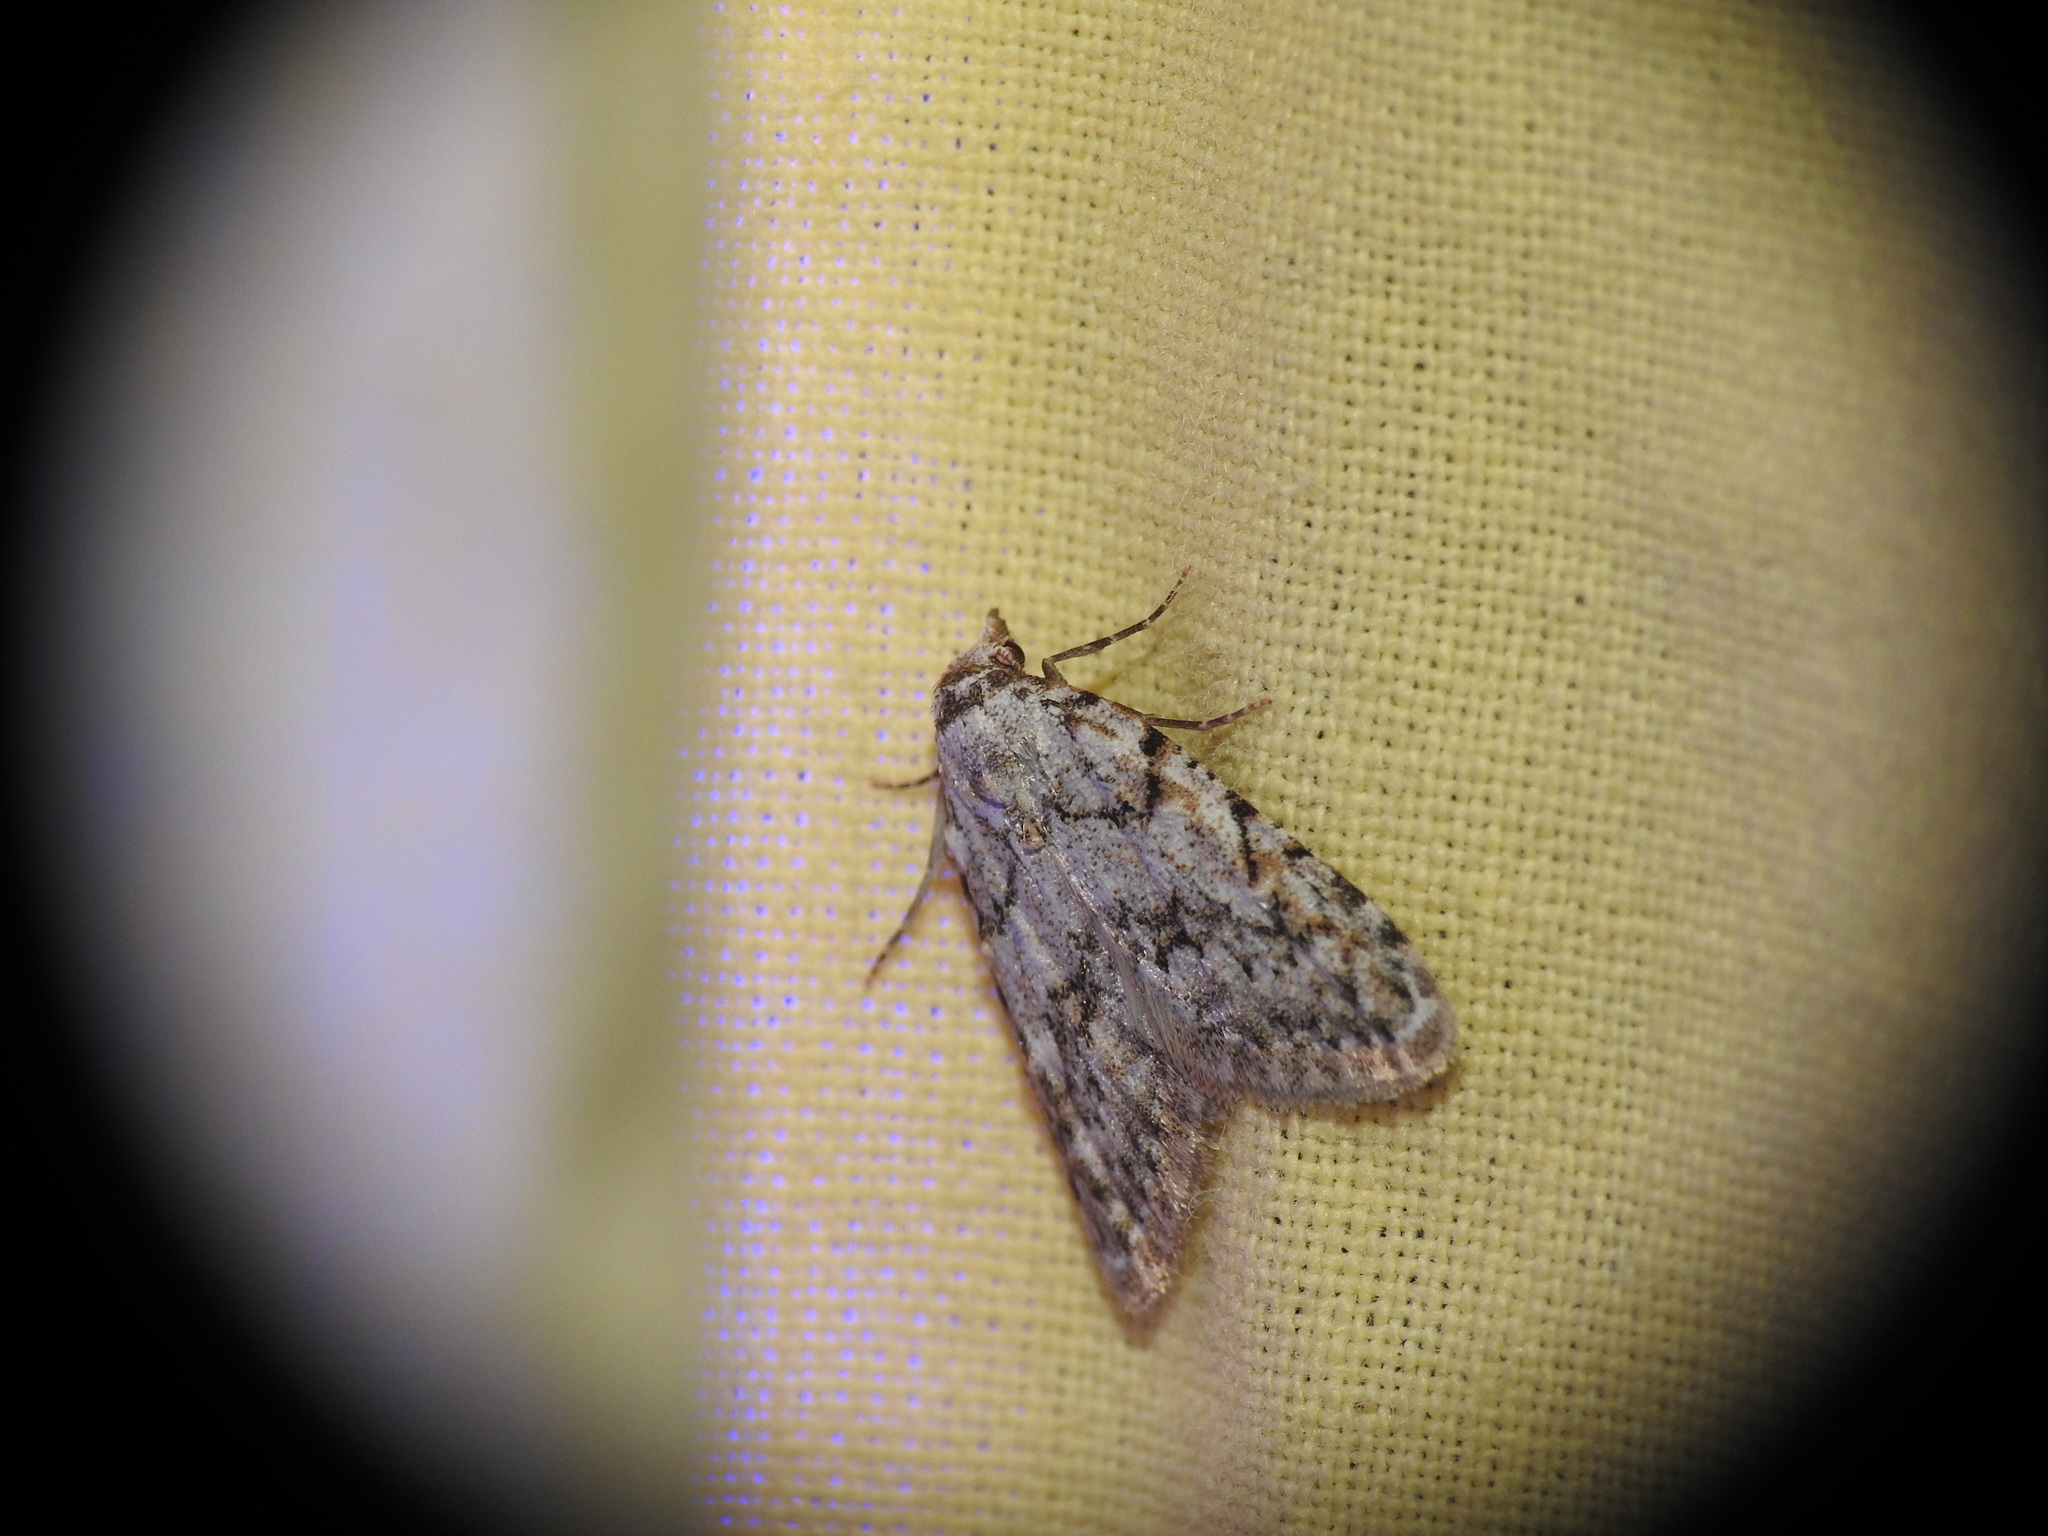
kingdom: Animalia
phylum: Arthropoda
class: Insecta
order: Lepidoptera
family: Nolidae
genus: Nola
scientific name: Nola cicatricalis
